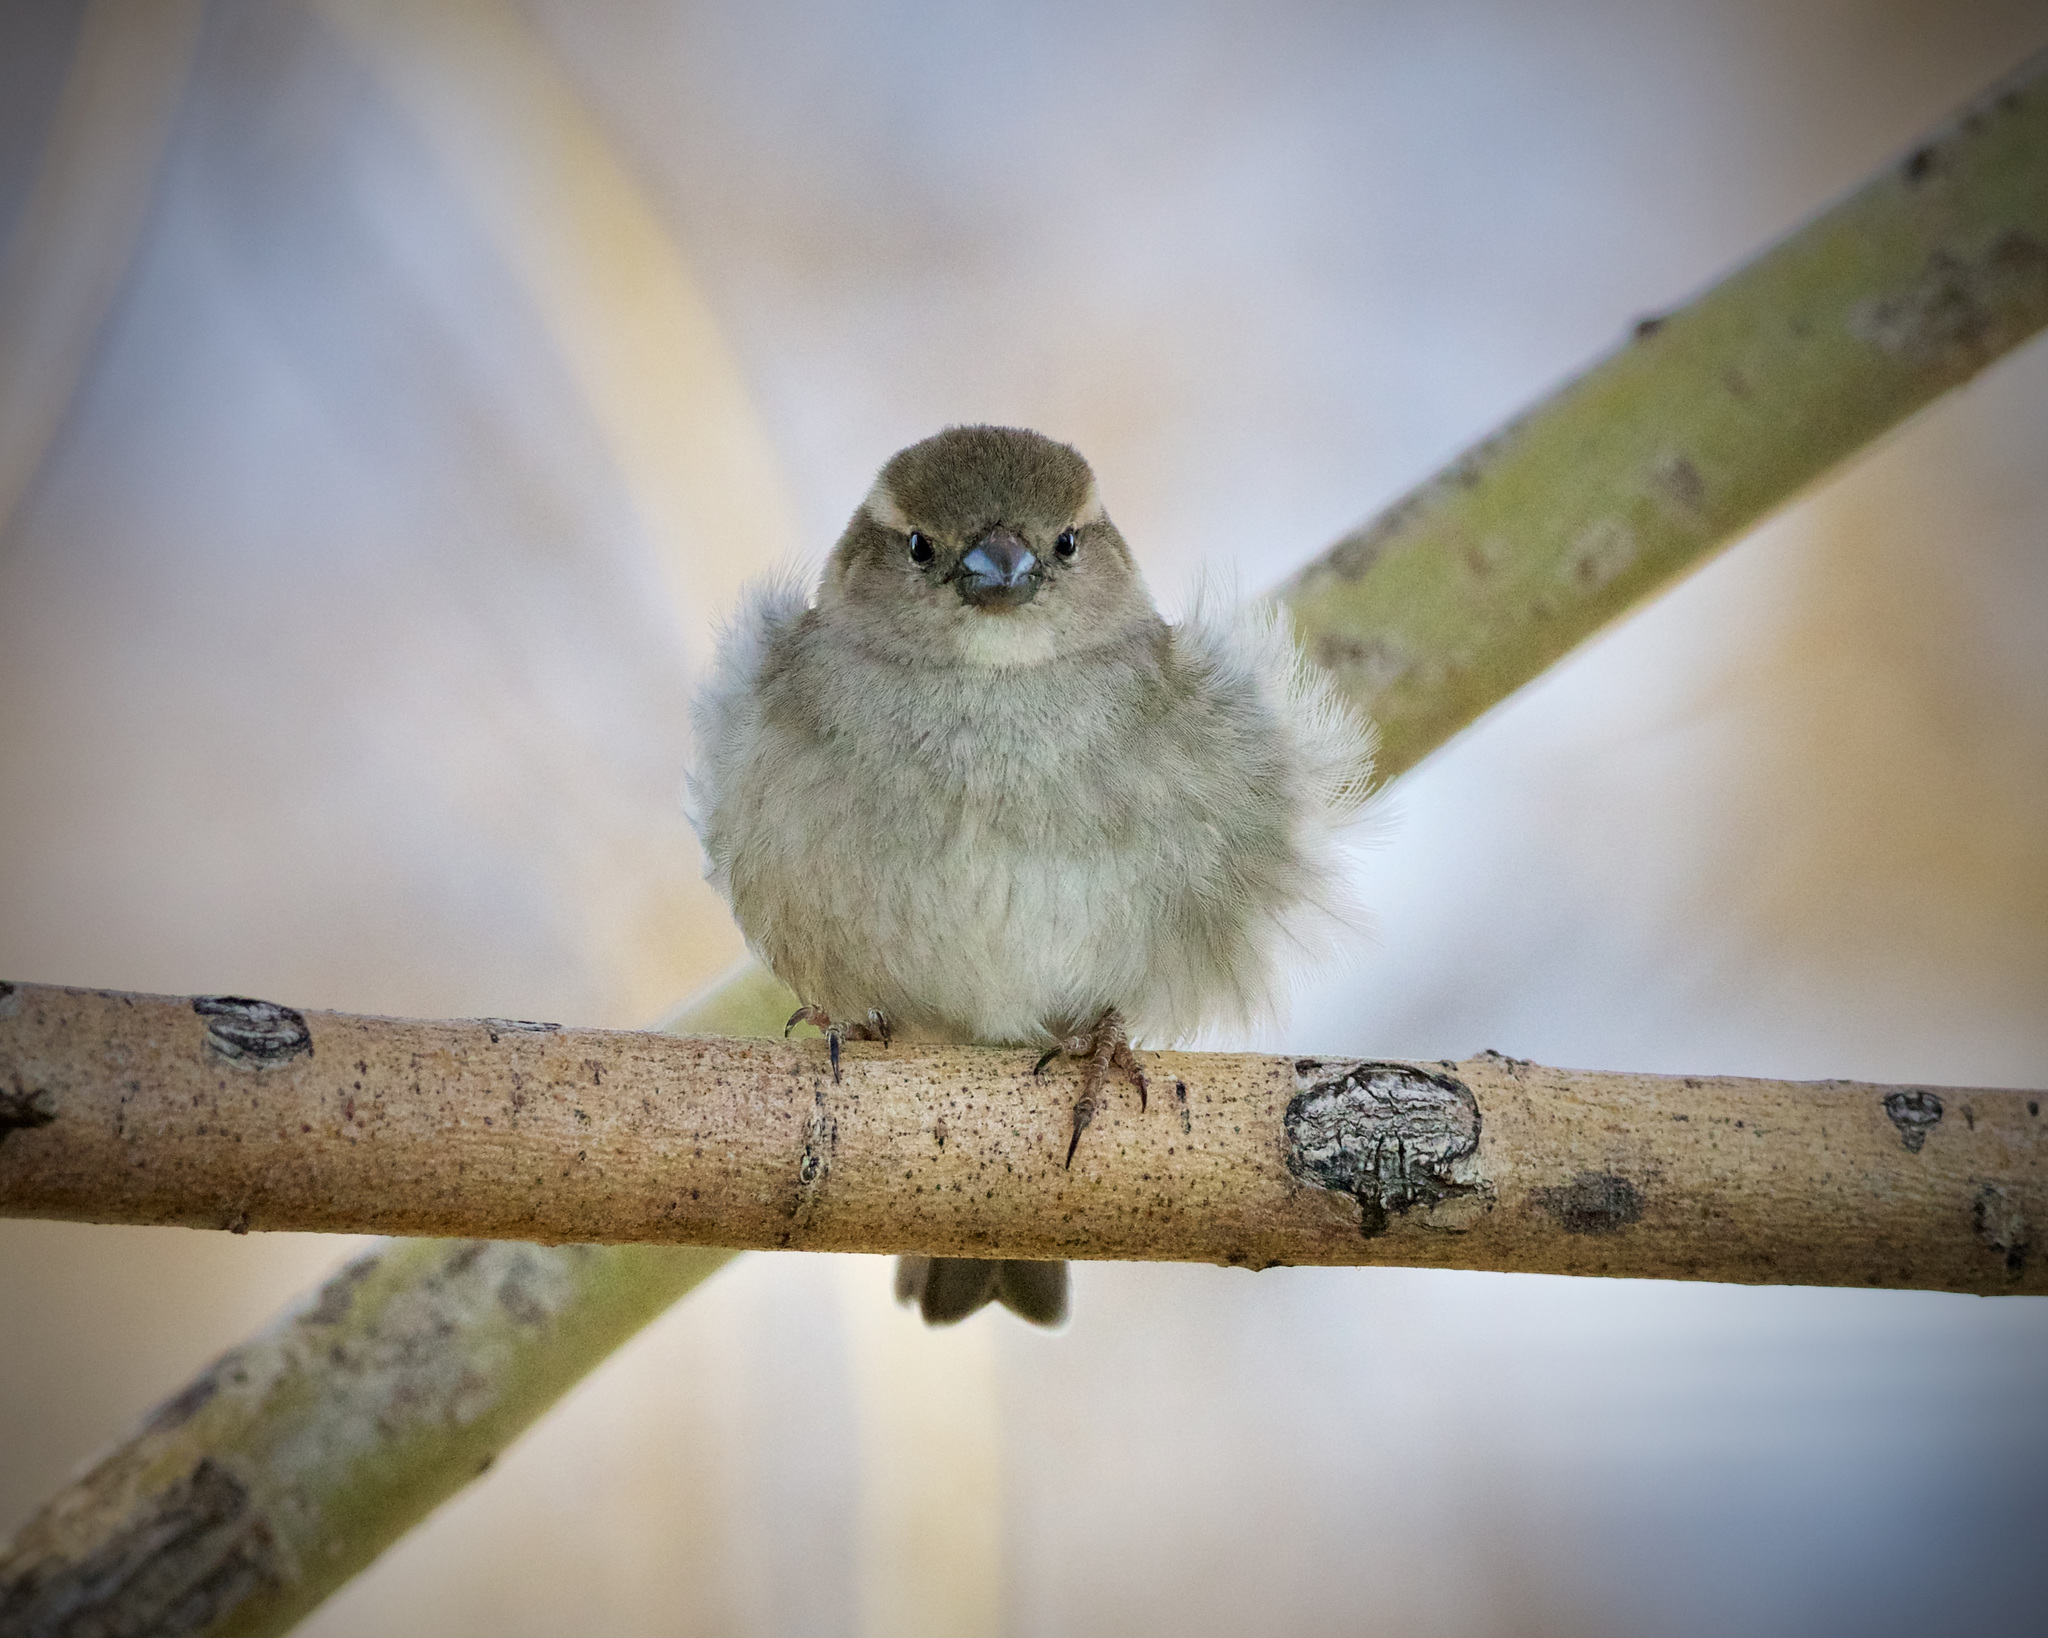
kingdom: Animalia
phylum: Chordata
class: Aves
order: Passeriformes
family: Passeridae
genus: Passer
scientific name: Passer domesticus
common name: House sparrow
